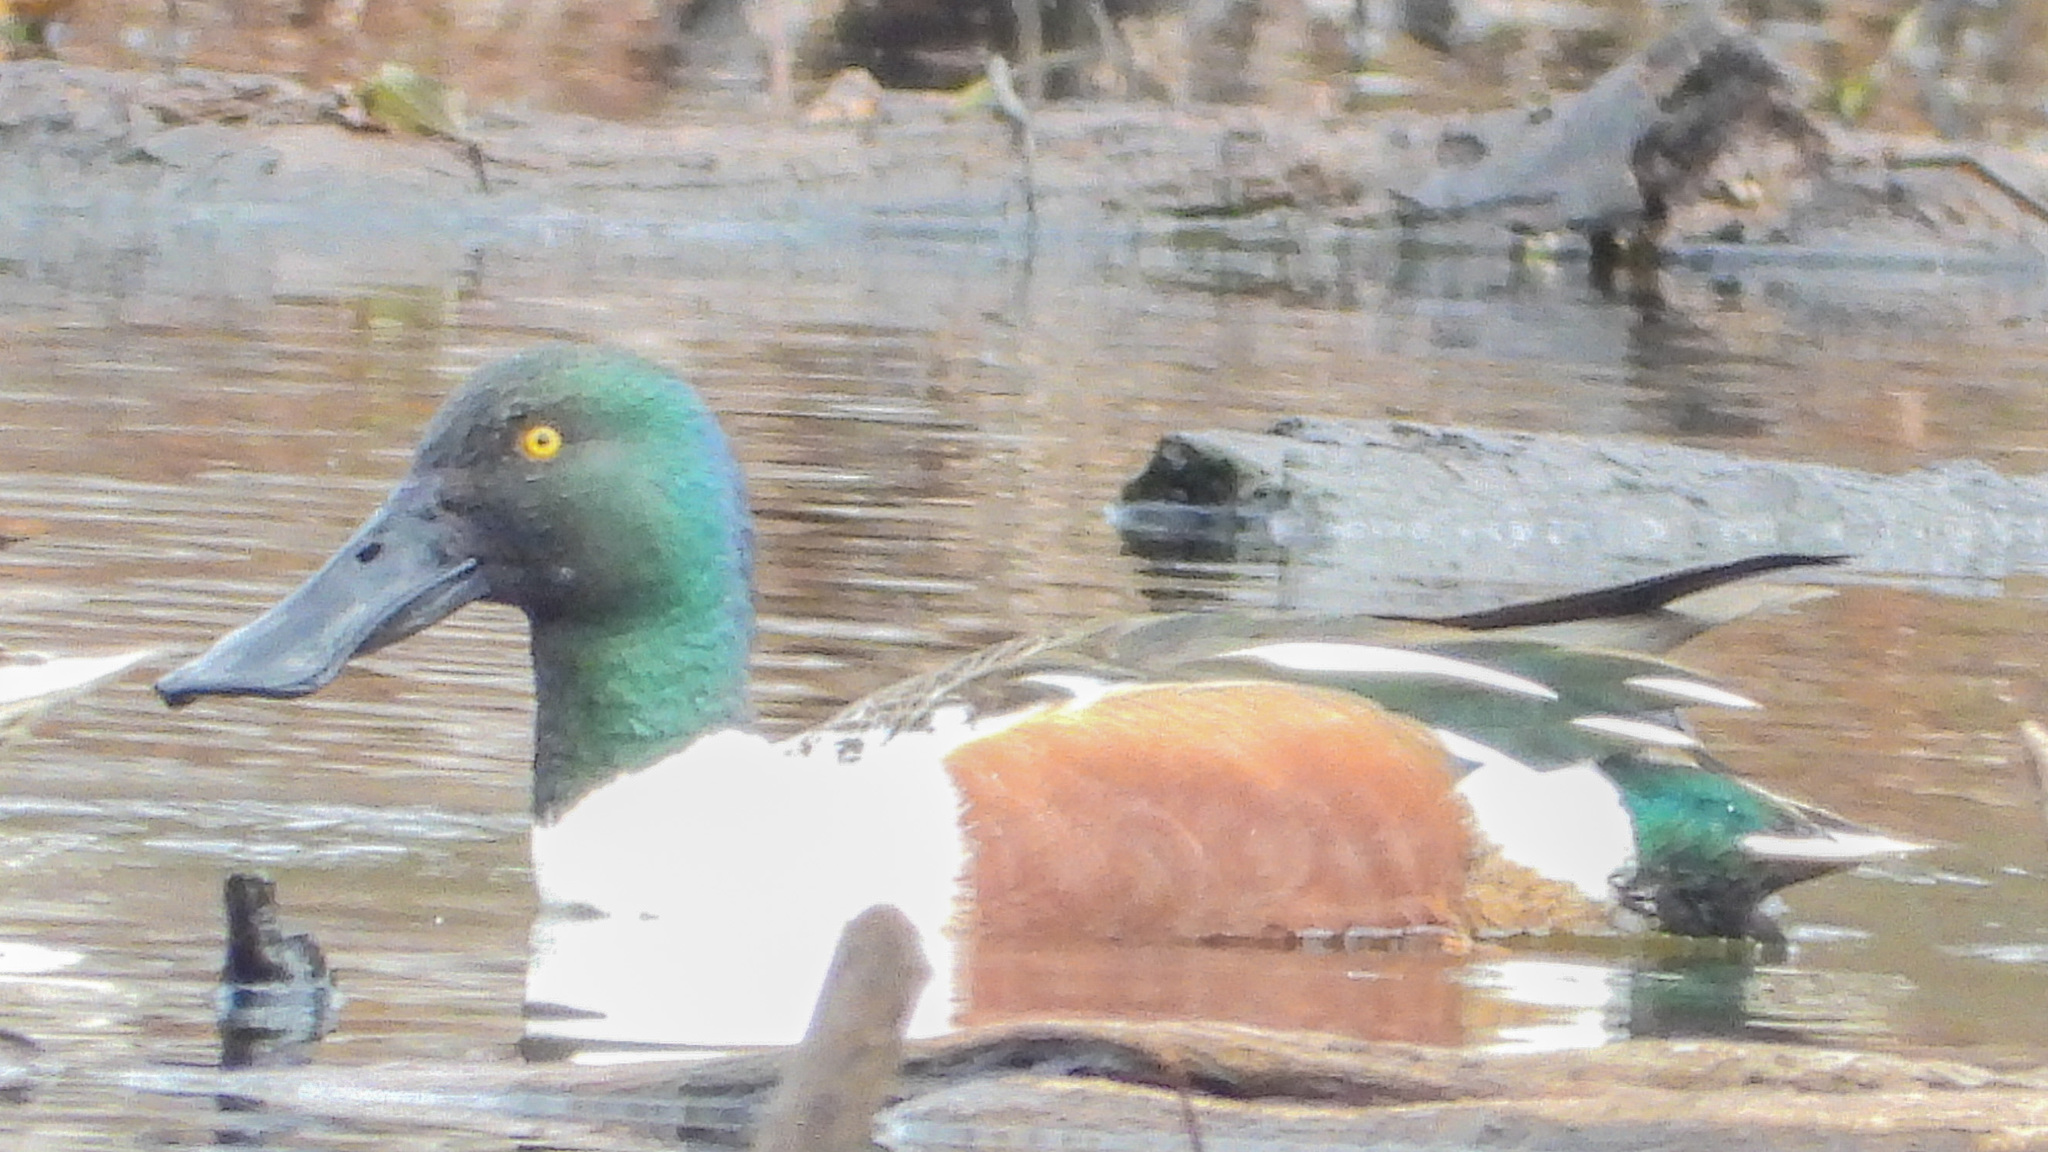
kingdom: Animalia
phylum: Chordata
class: Aves
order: Anseriformes
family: Anatidae
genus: Spatula
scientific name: Spatula clypeata
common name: Northern shoveler
